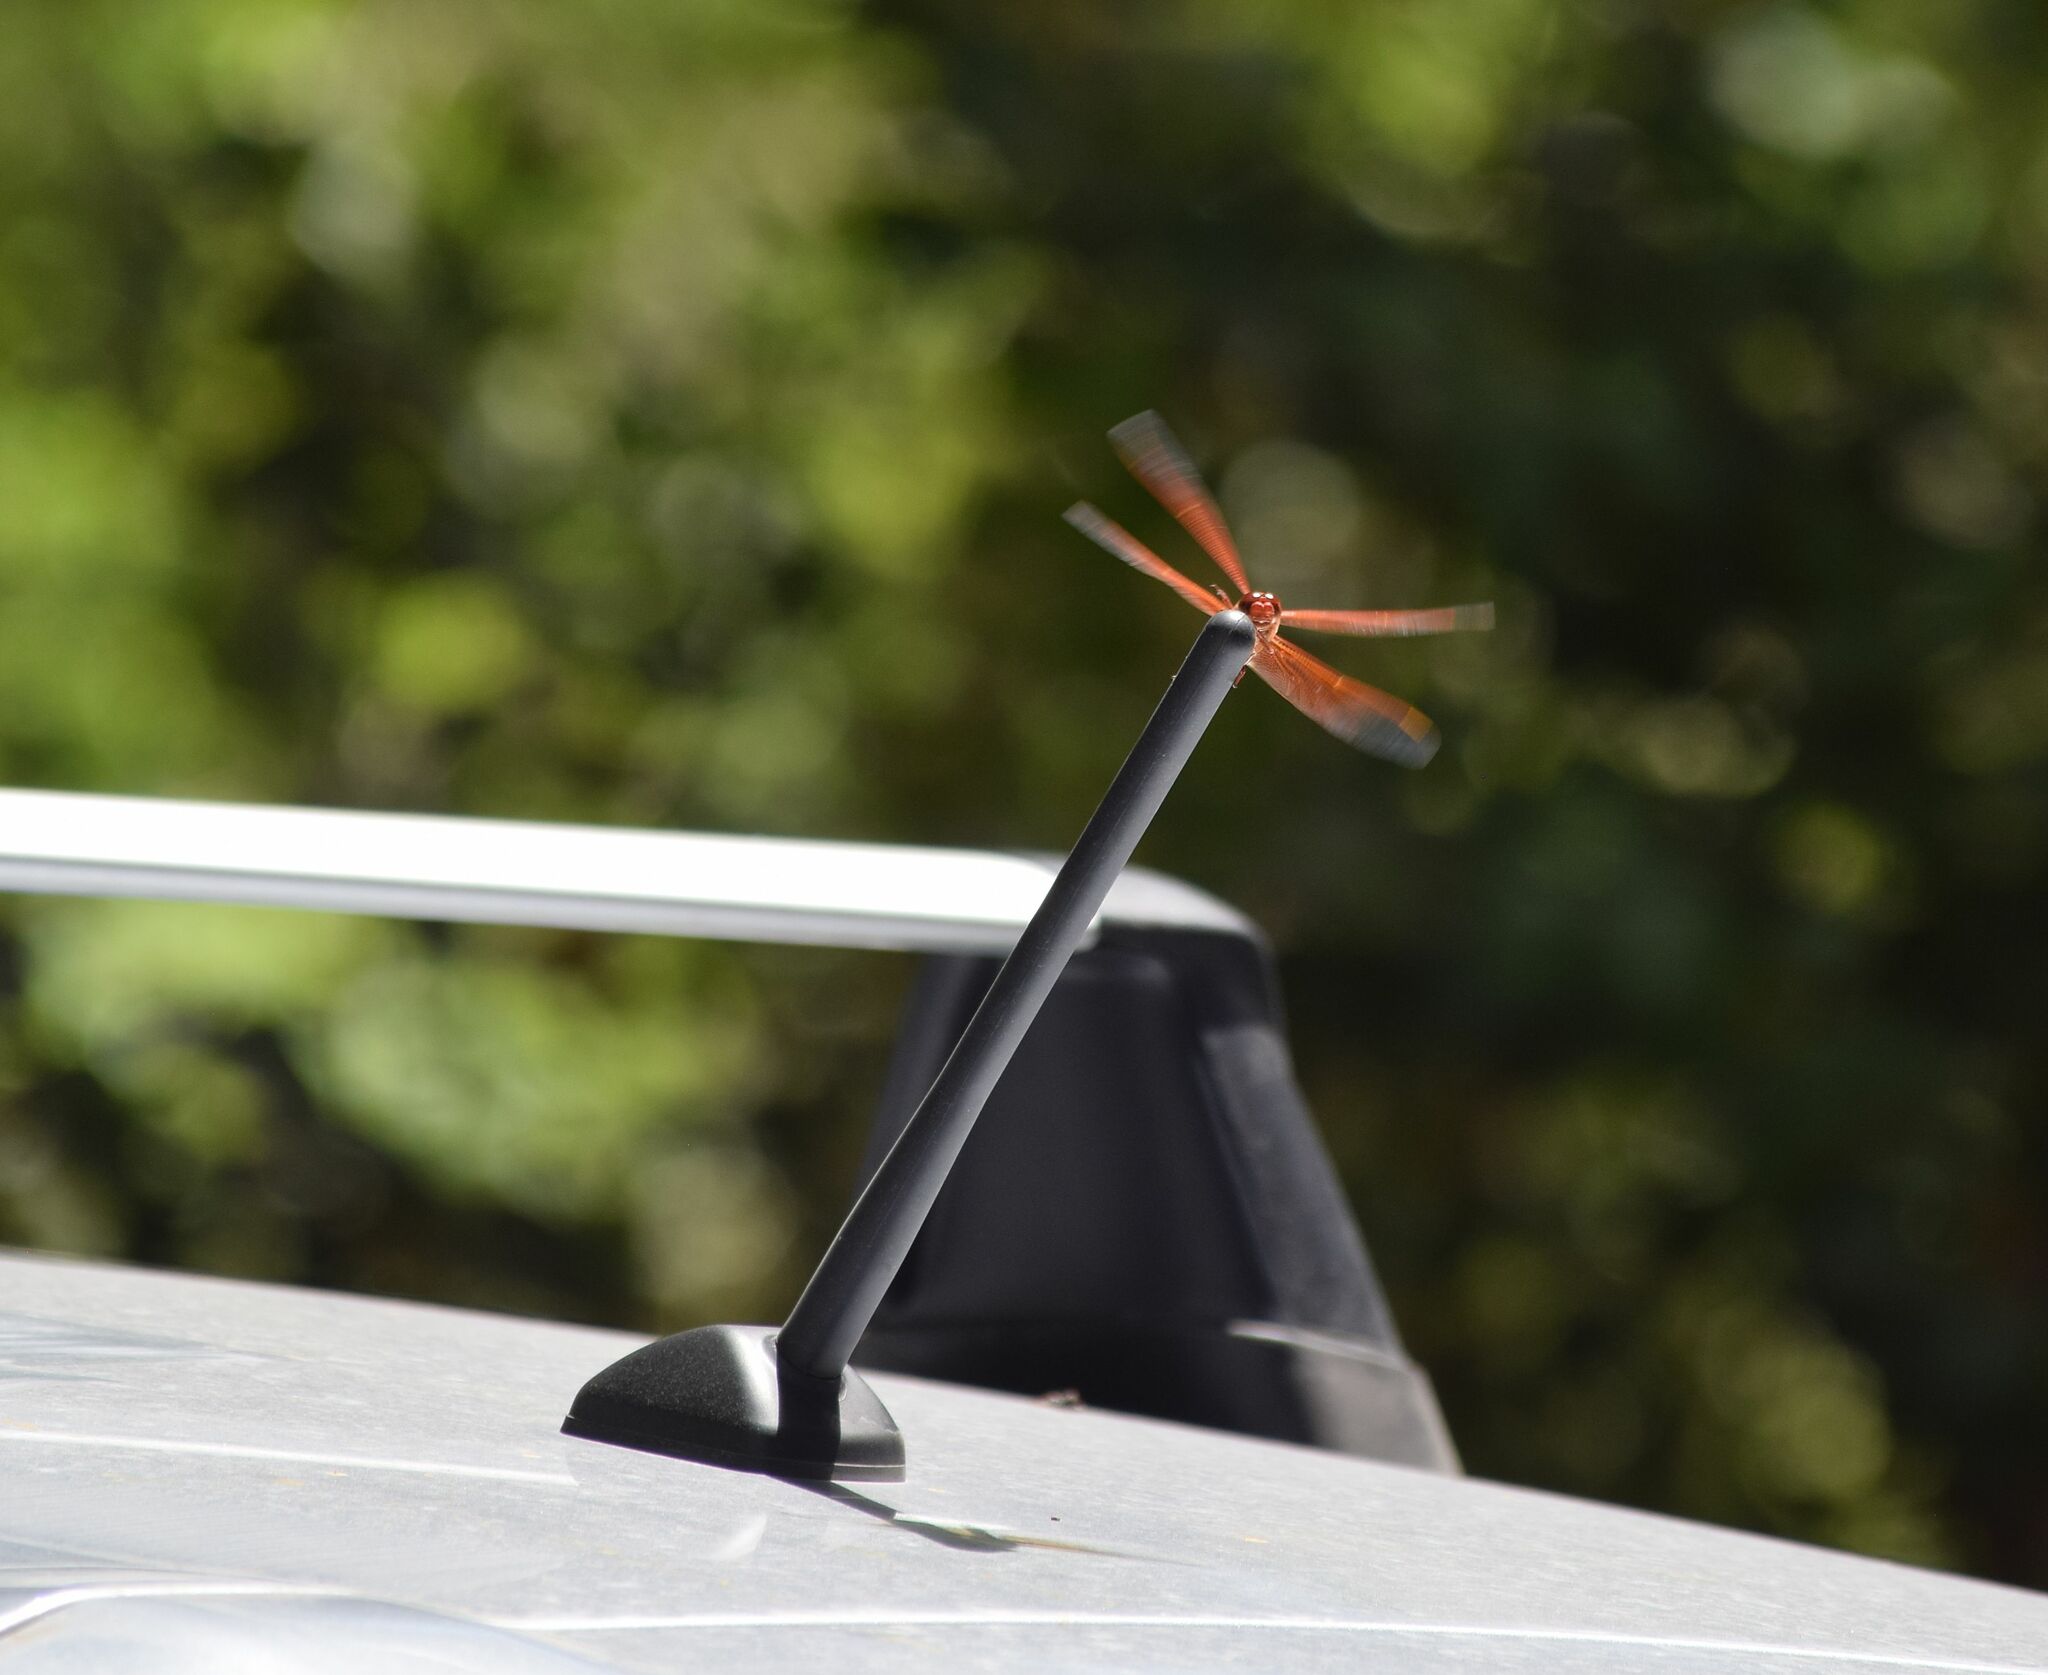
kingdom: Animalia
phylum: Arthropoda
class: Insecta
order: Odonata
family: Libellulidae
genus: Libellula
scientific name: Libellula saturata
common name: Flame skimmer
